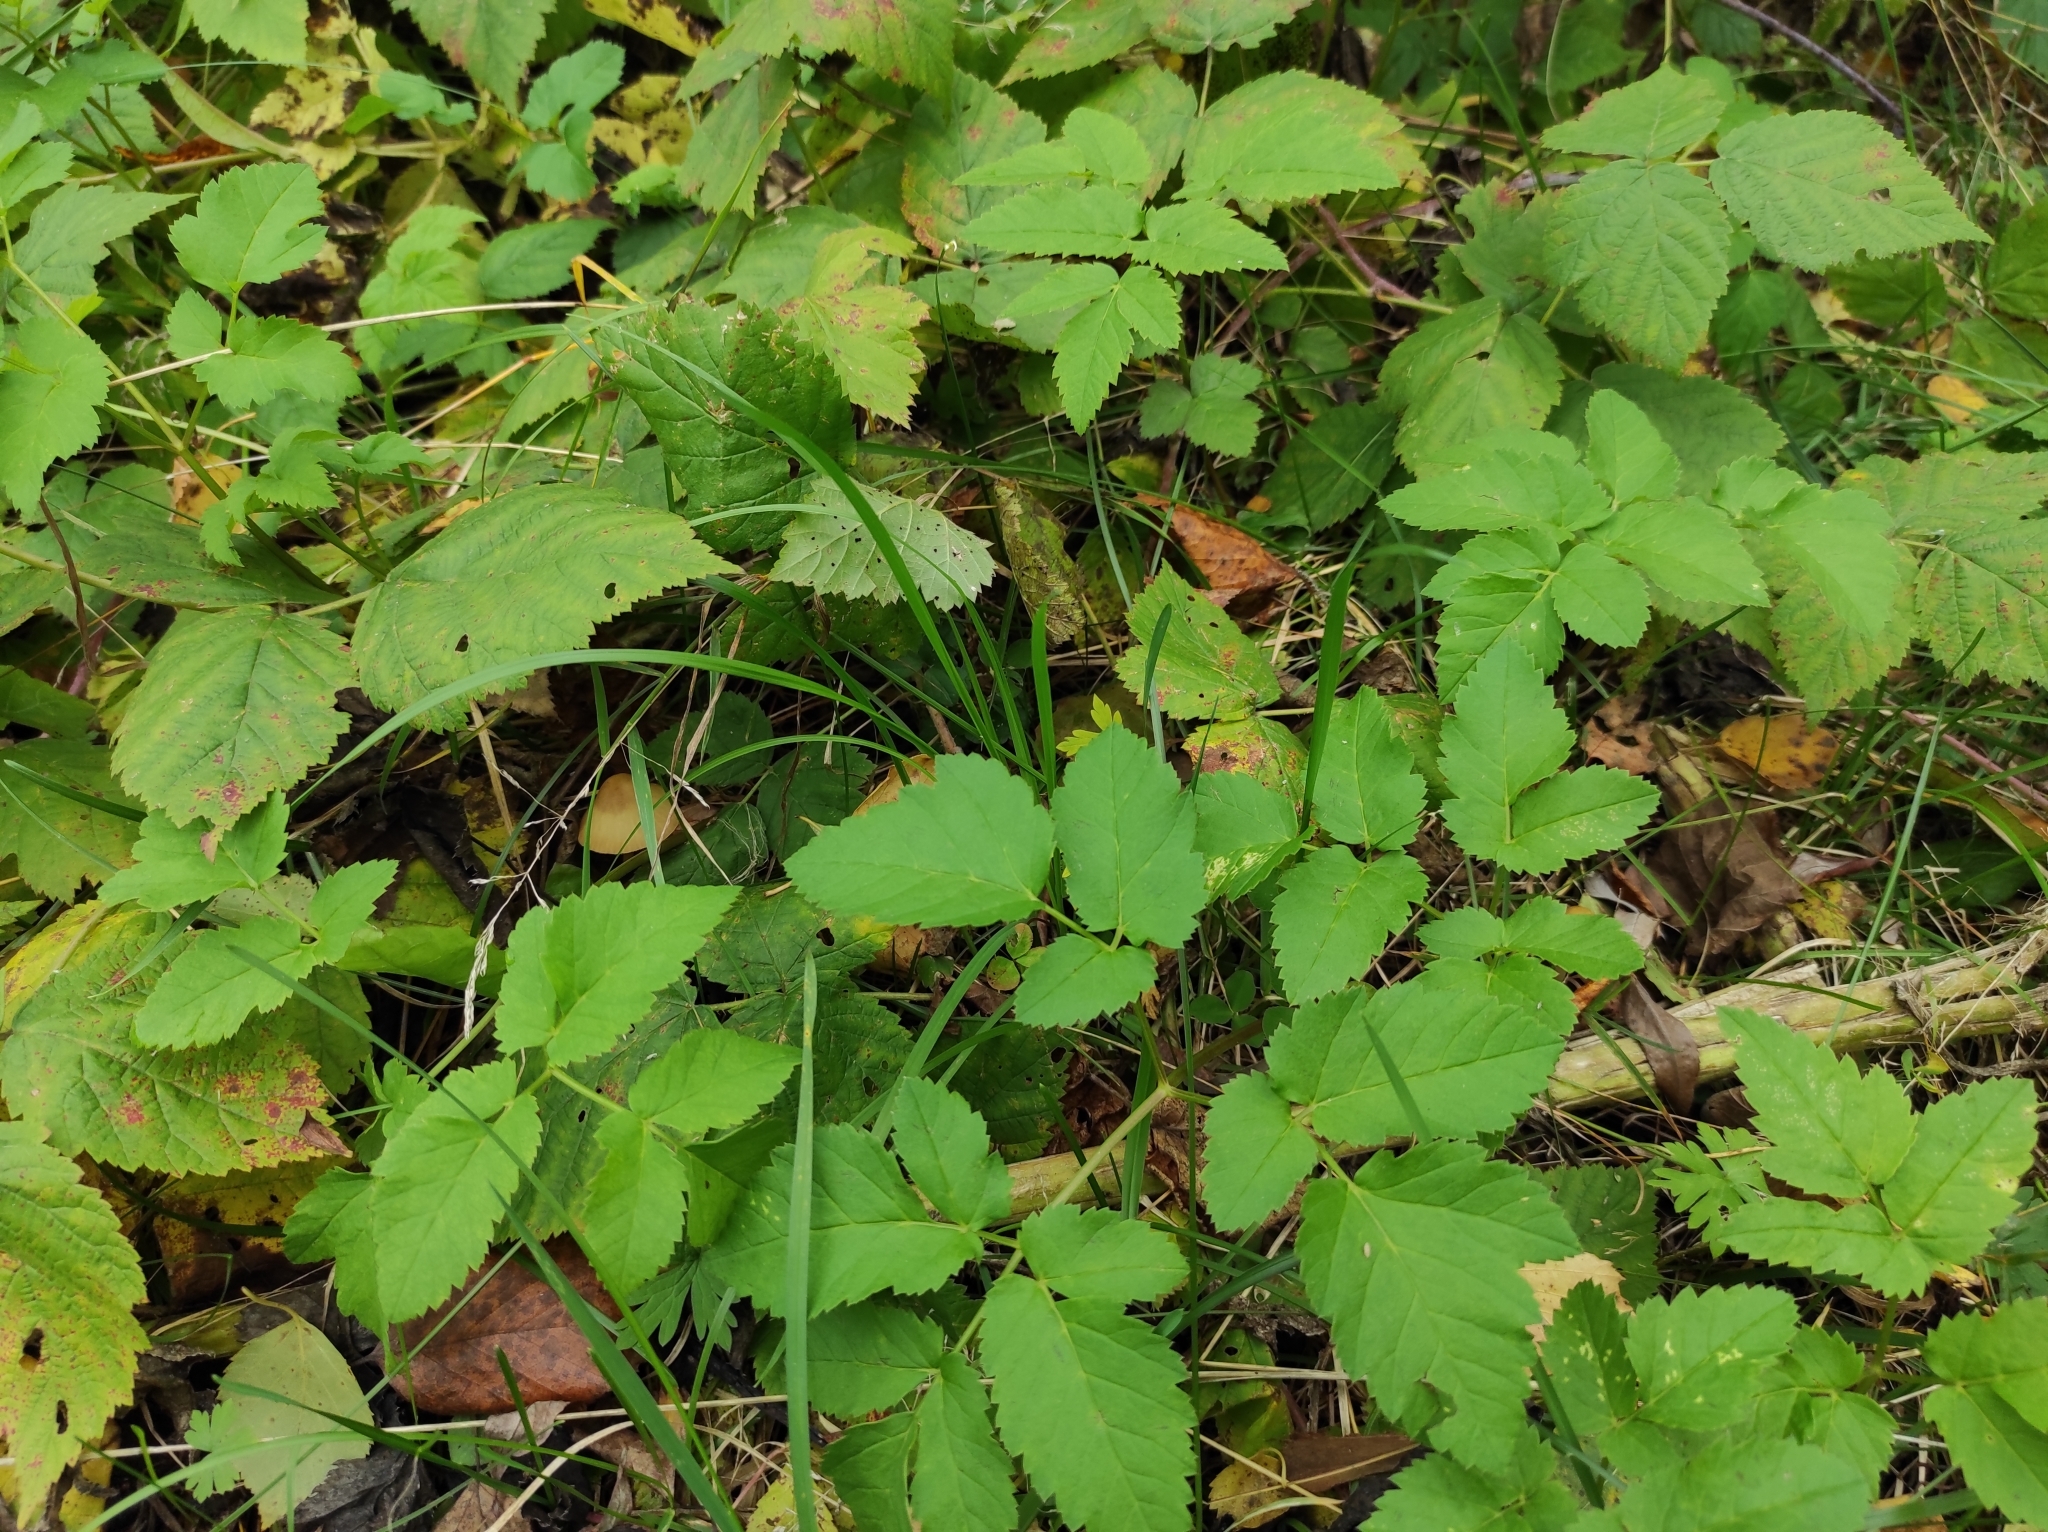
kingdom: Plantae
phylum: Tracheophyta
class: Magnoliopsida
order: Apiales
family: Apiaceae
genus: Aegopodium
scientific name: Aegopodium podagraria
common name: Ground-elder
